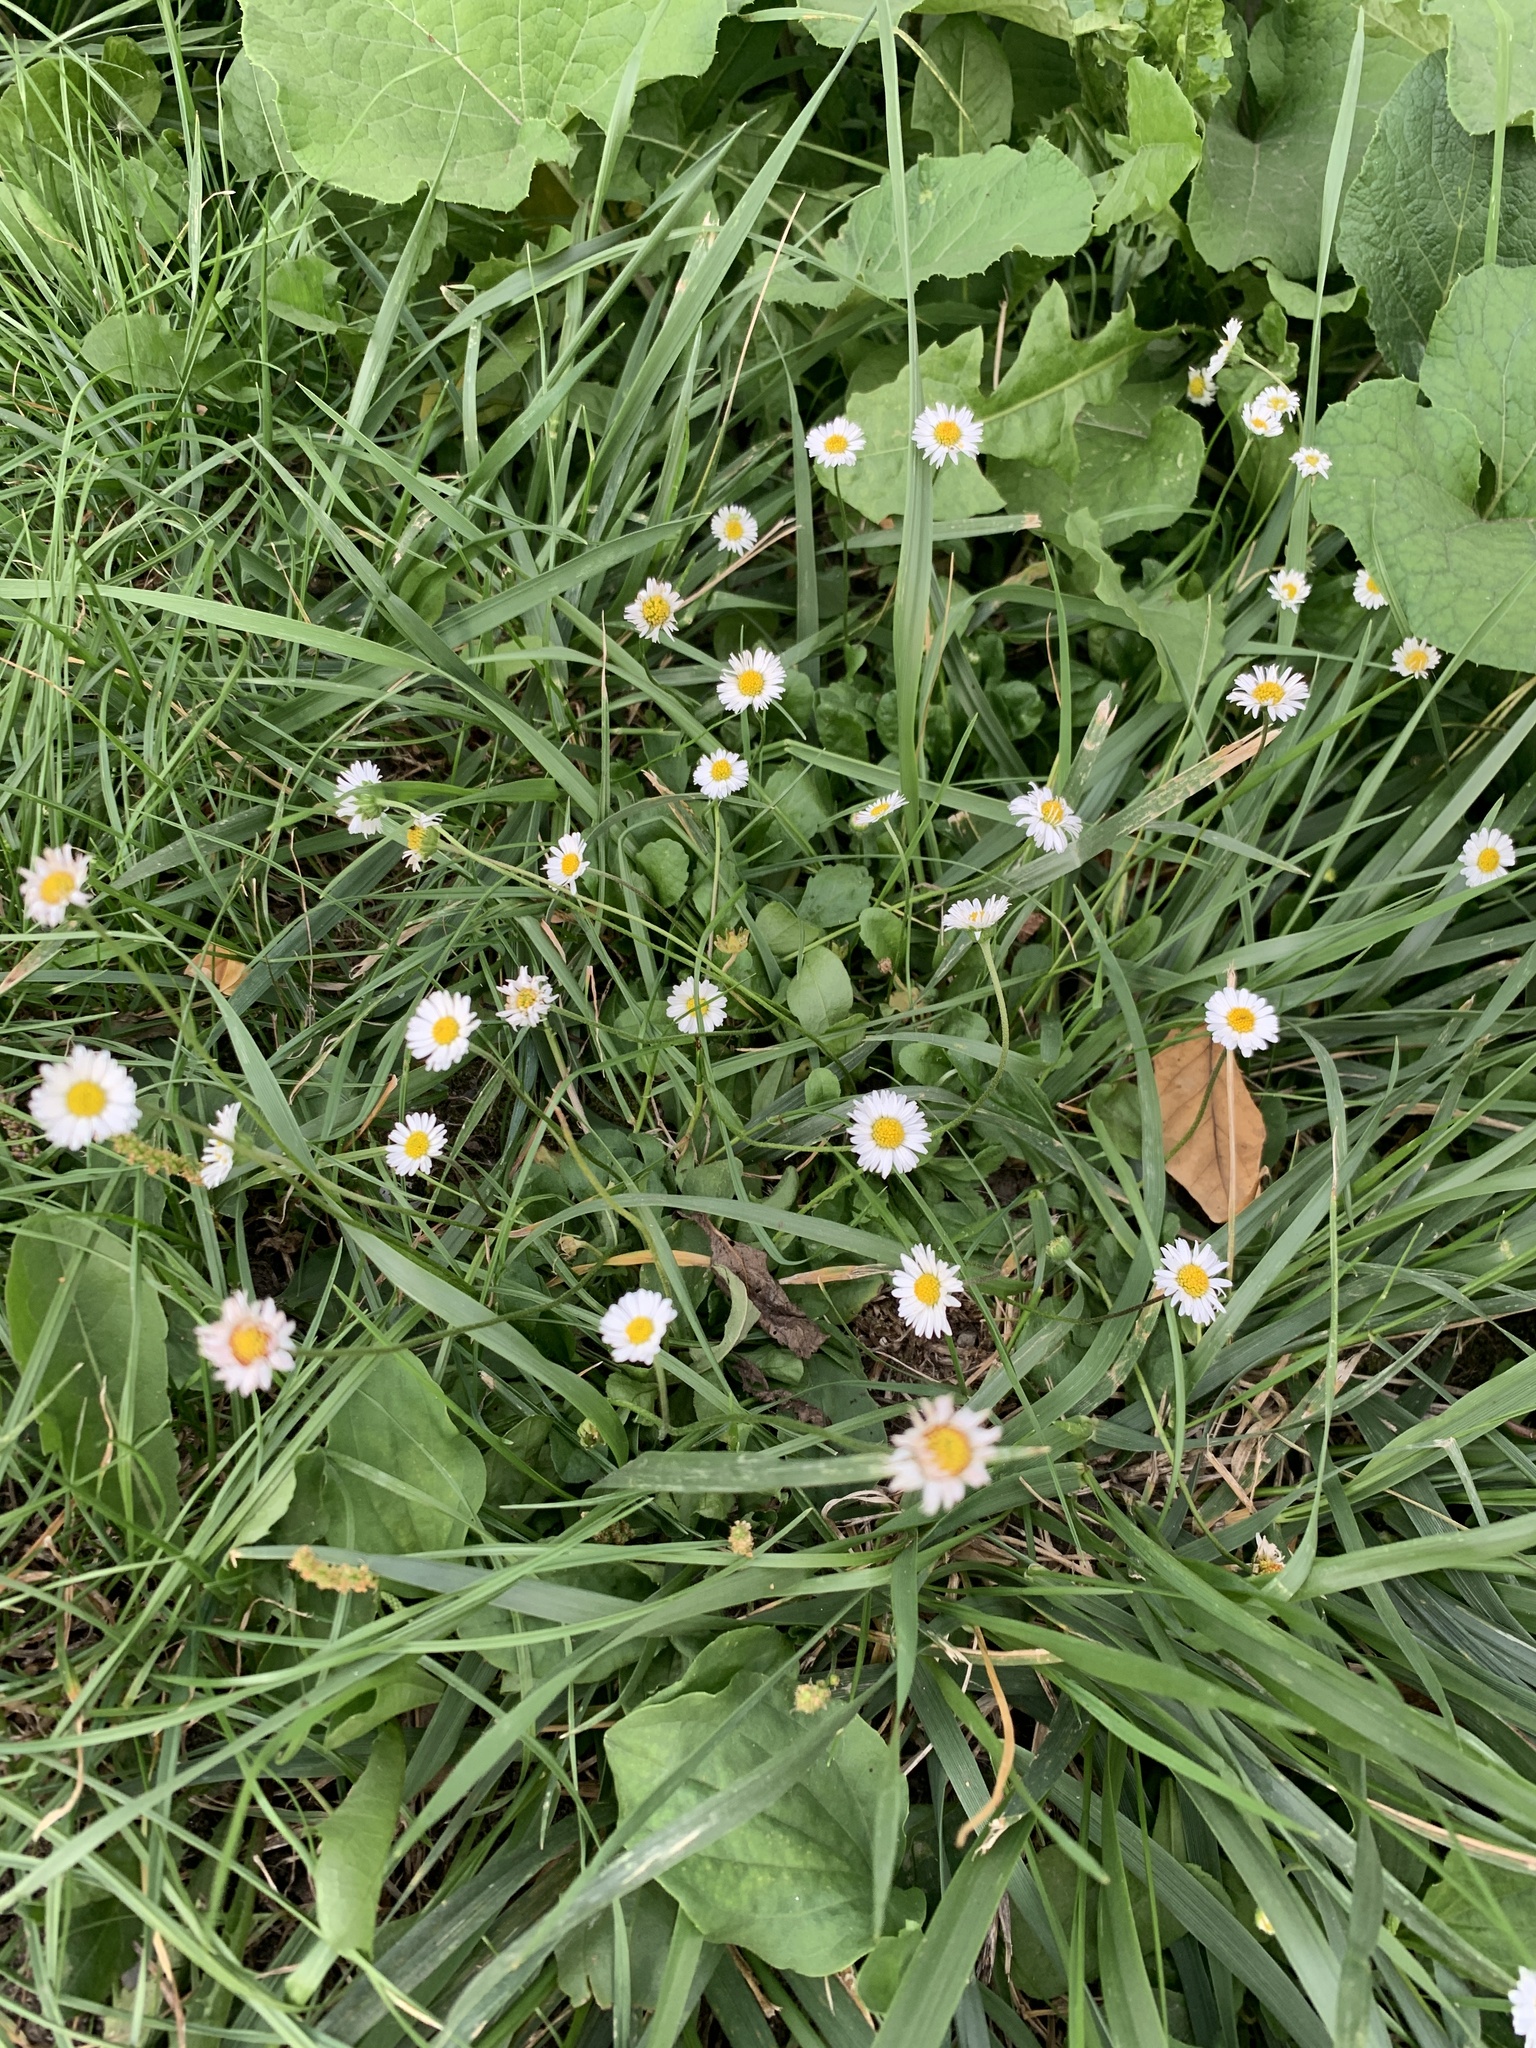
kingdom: Plantae
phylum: Tracheophyta
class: Magnoliopsida
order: Asterales
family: Asteraceae
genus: Bellis
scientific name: Bellis perennis
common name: Lawndaisy
